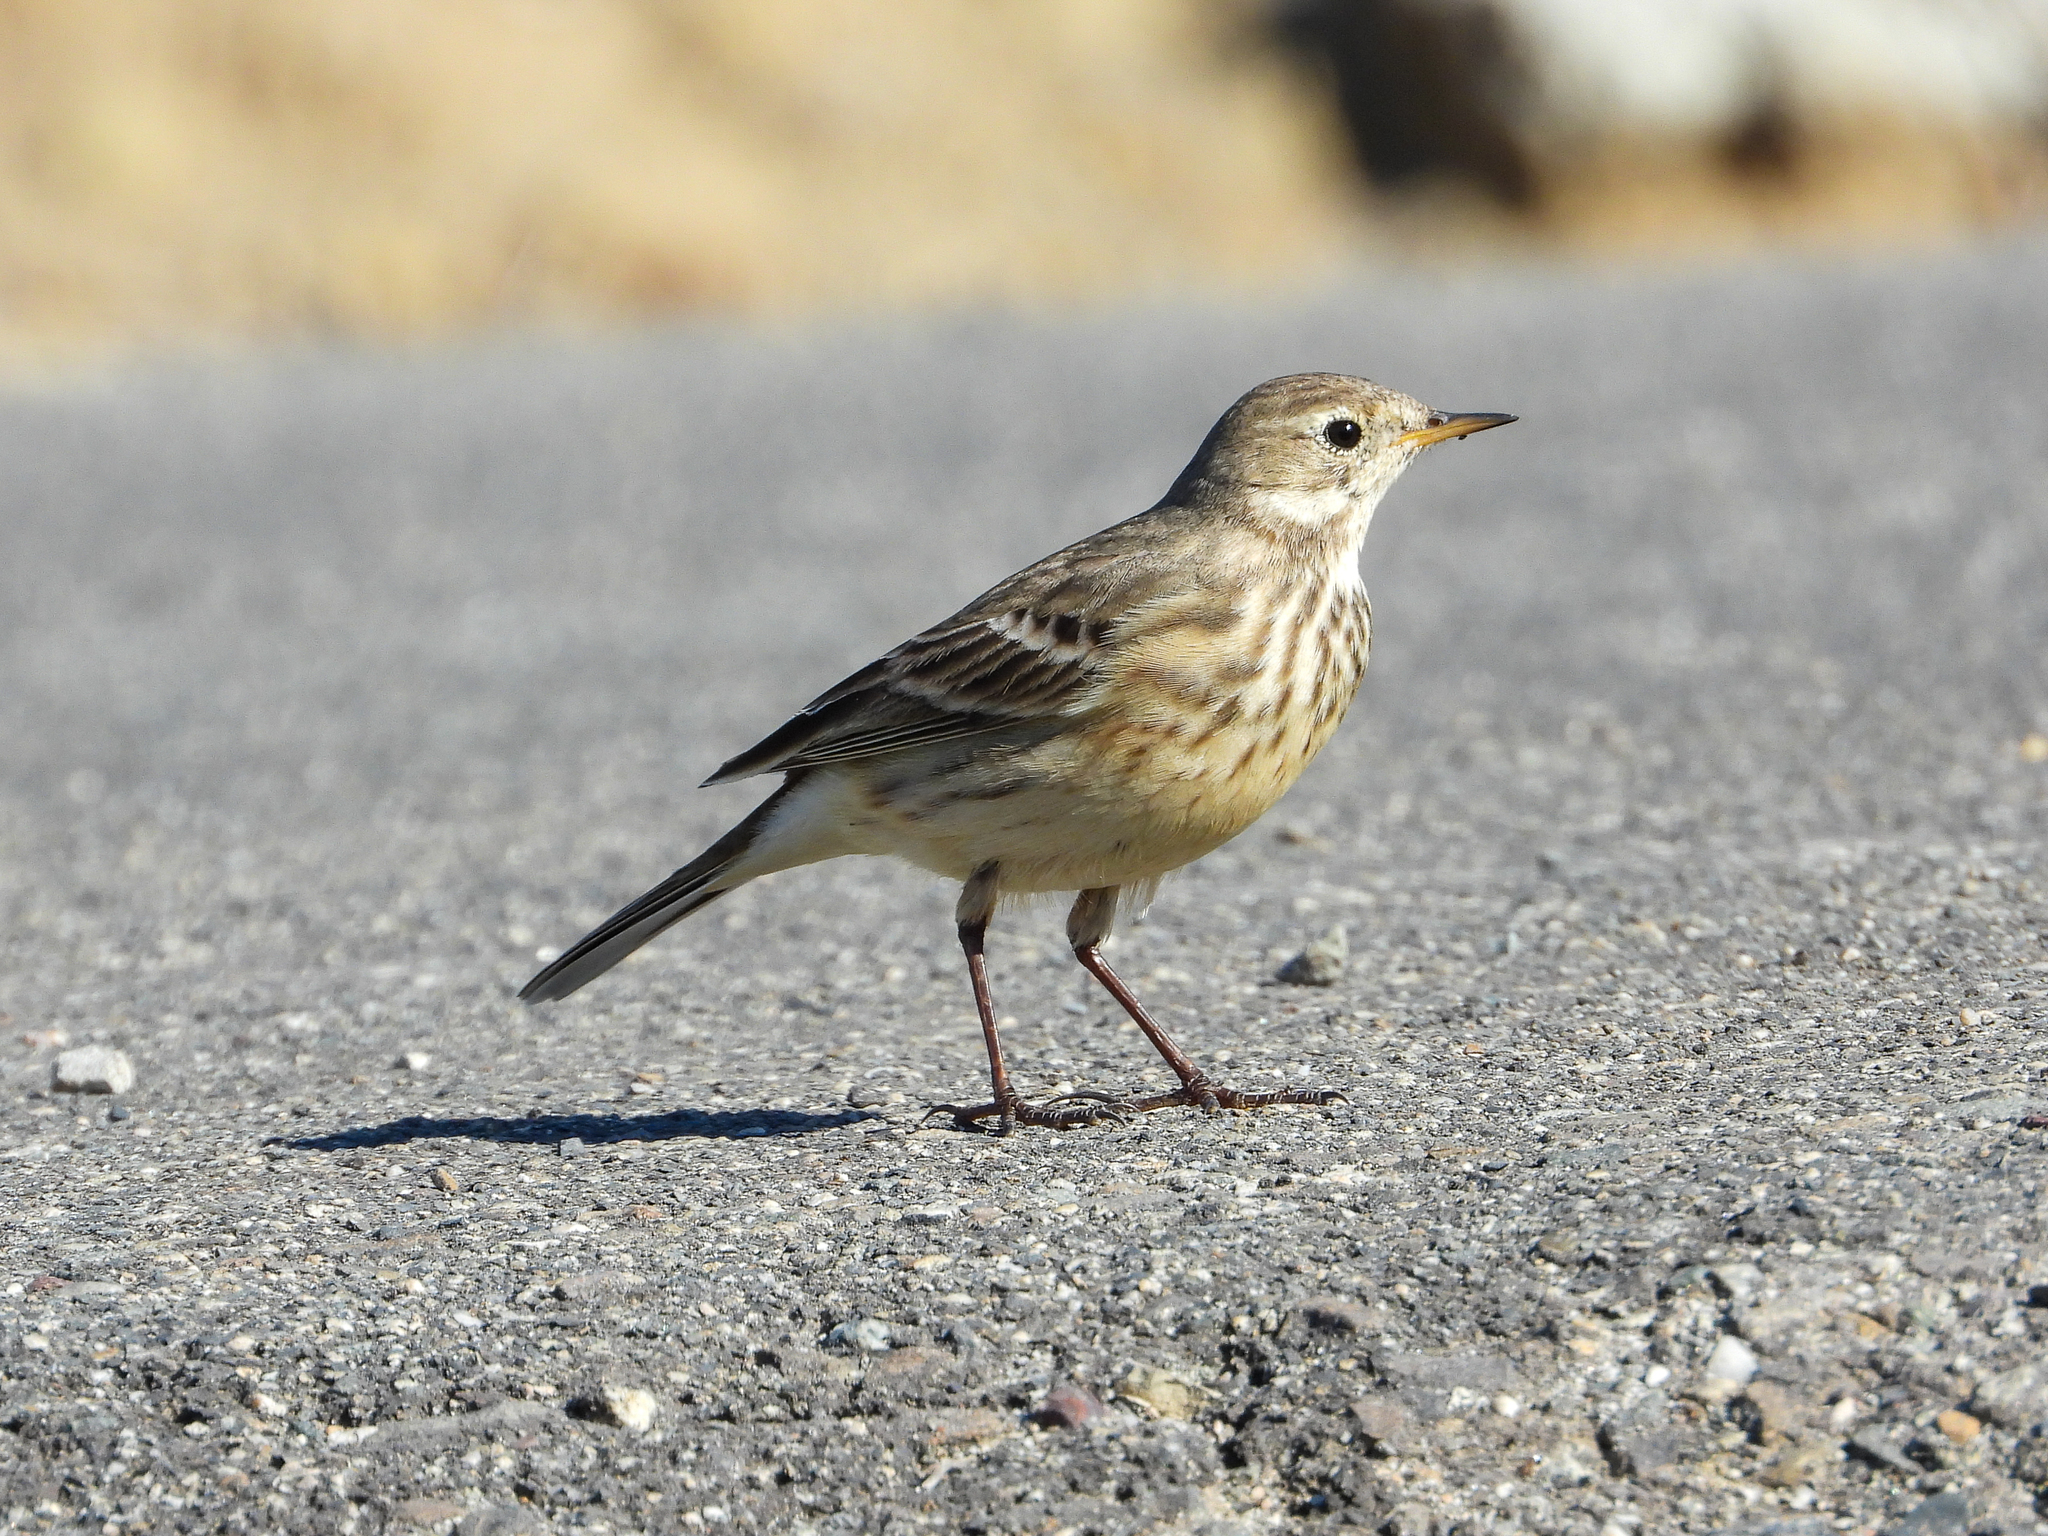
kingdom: Animalia
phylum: Chordata
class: Aves
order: Passeriformes
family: Motacillidae
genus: Anthus
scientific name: Anthus rubescens
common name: Buff-bellied pipit
